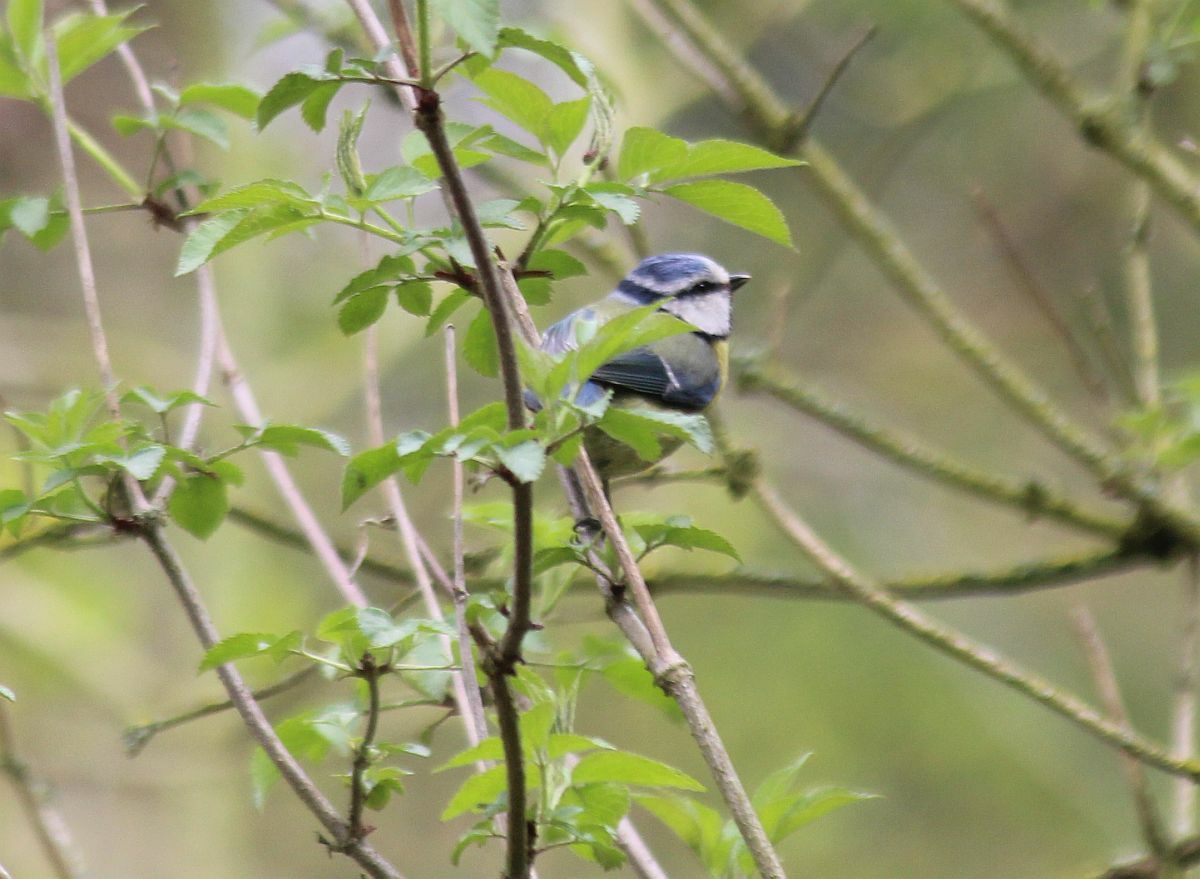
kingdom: Animalia
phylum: Chordata
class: Aves
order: Passeriformes
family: Paridae
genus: Cyanistes
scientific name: Cyanistes caeruleus
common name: Eurasian blue tit
